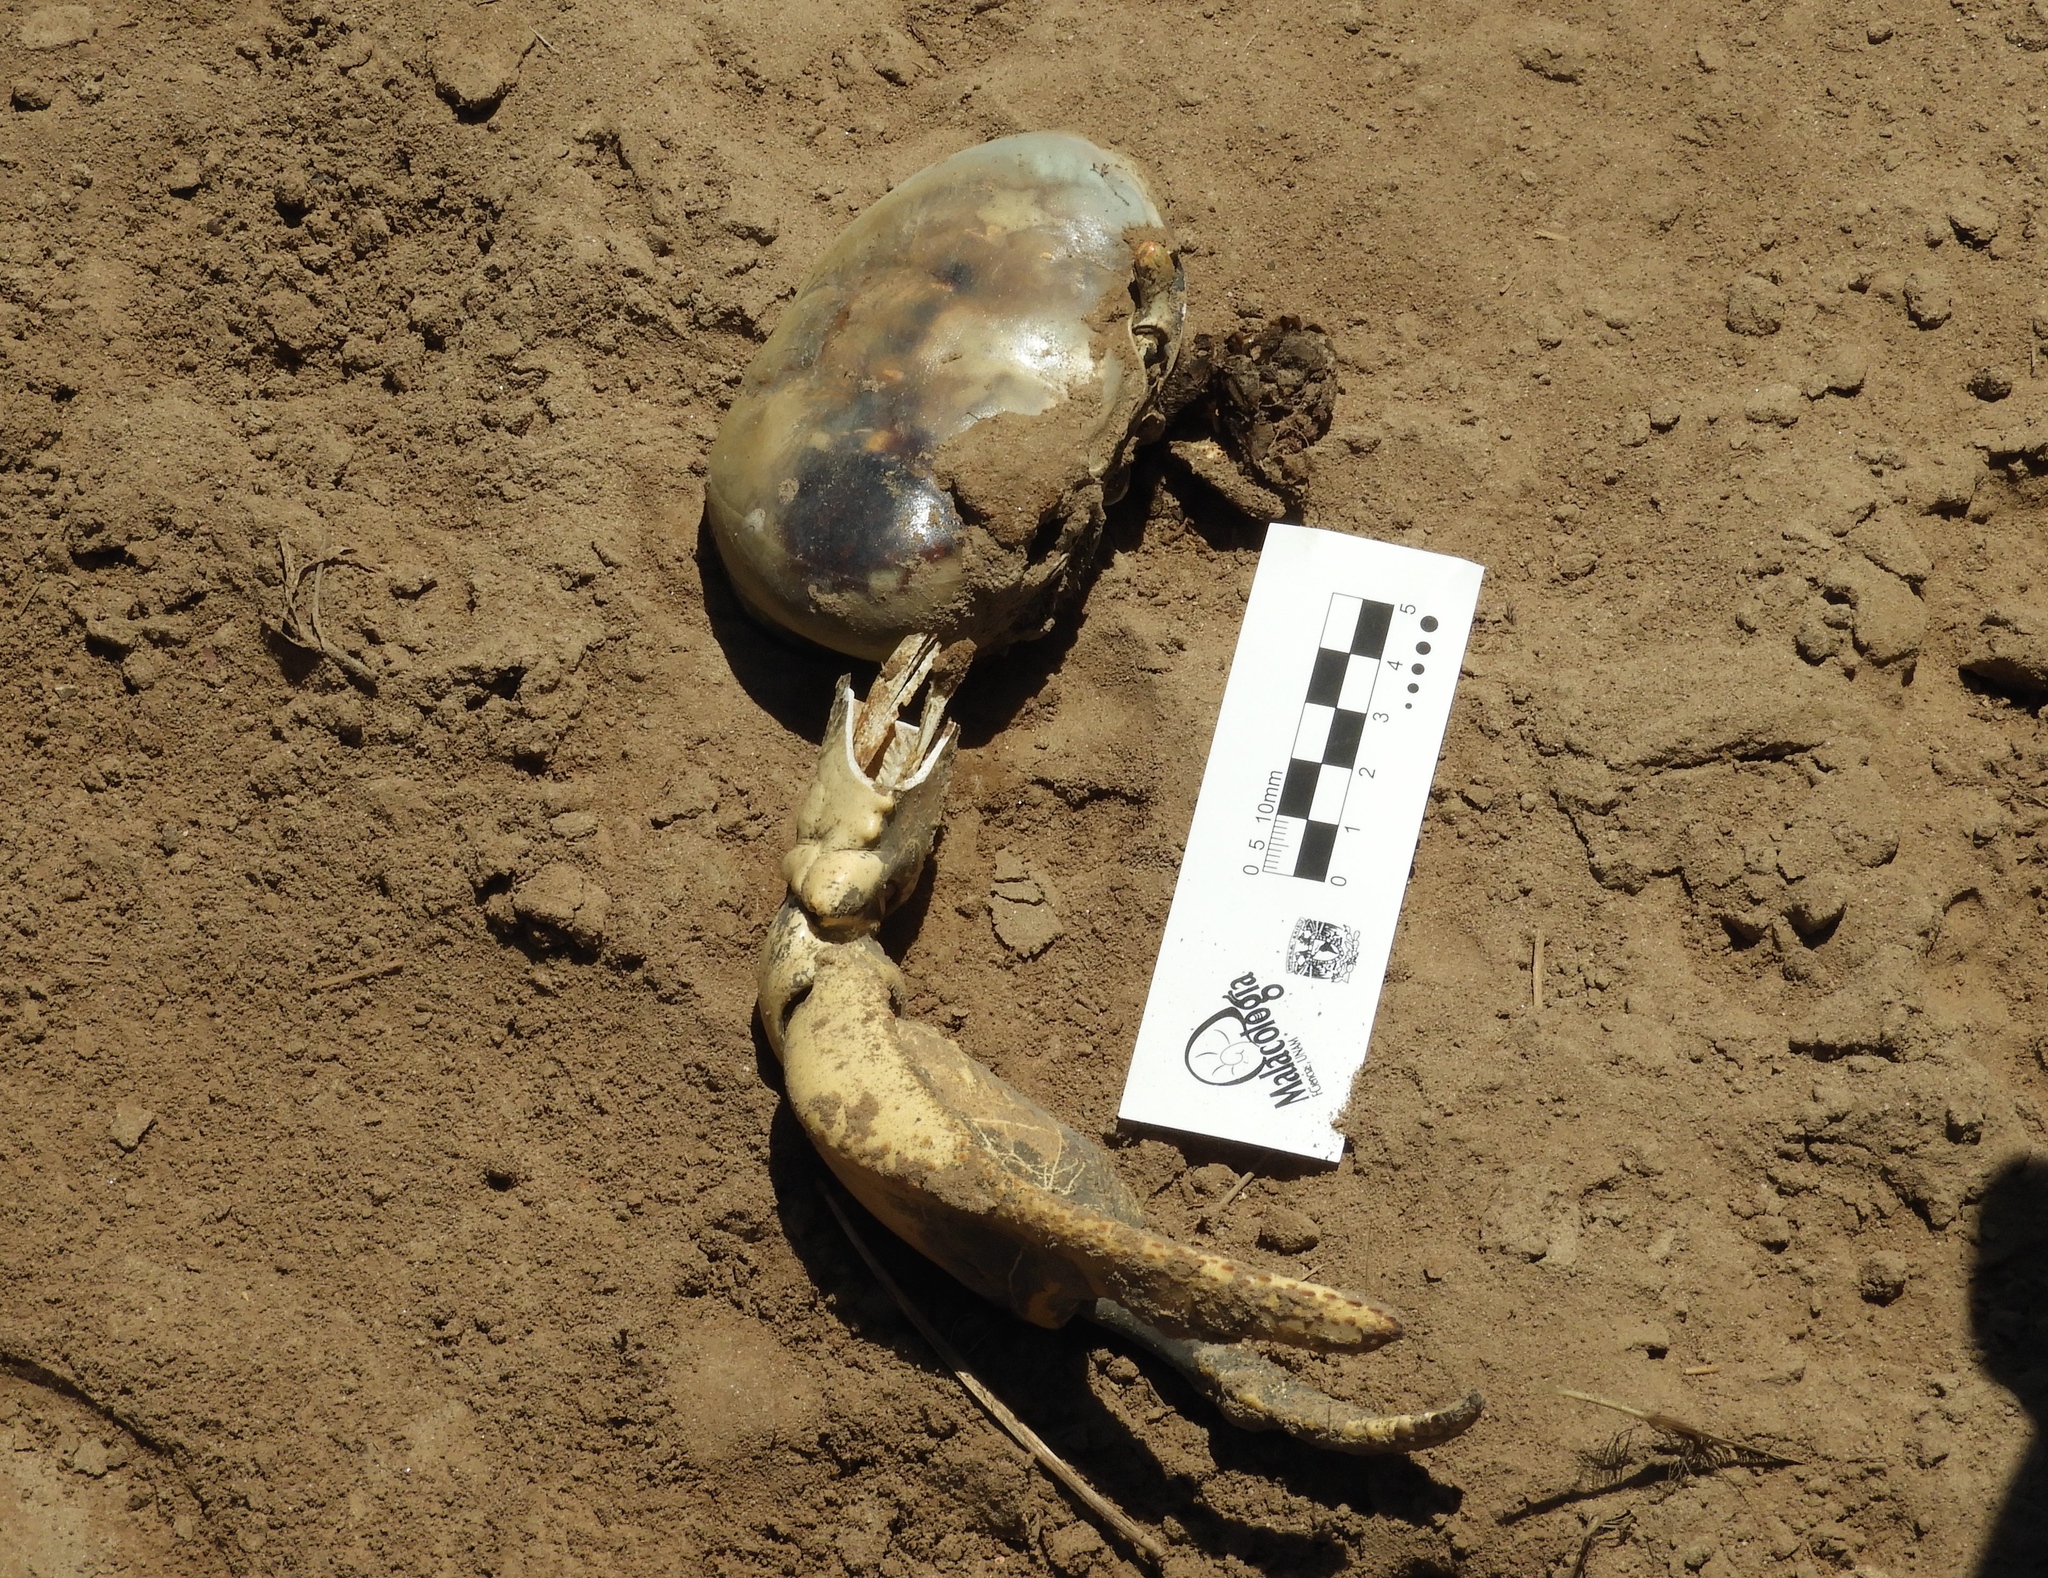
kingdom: Animalia
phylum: Arthropoda
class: Malacostraca
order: Decapoda
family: Gecarcinidae
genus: Cardisoma
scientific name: Cardisoma crassum
